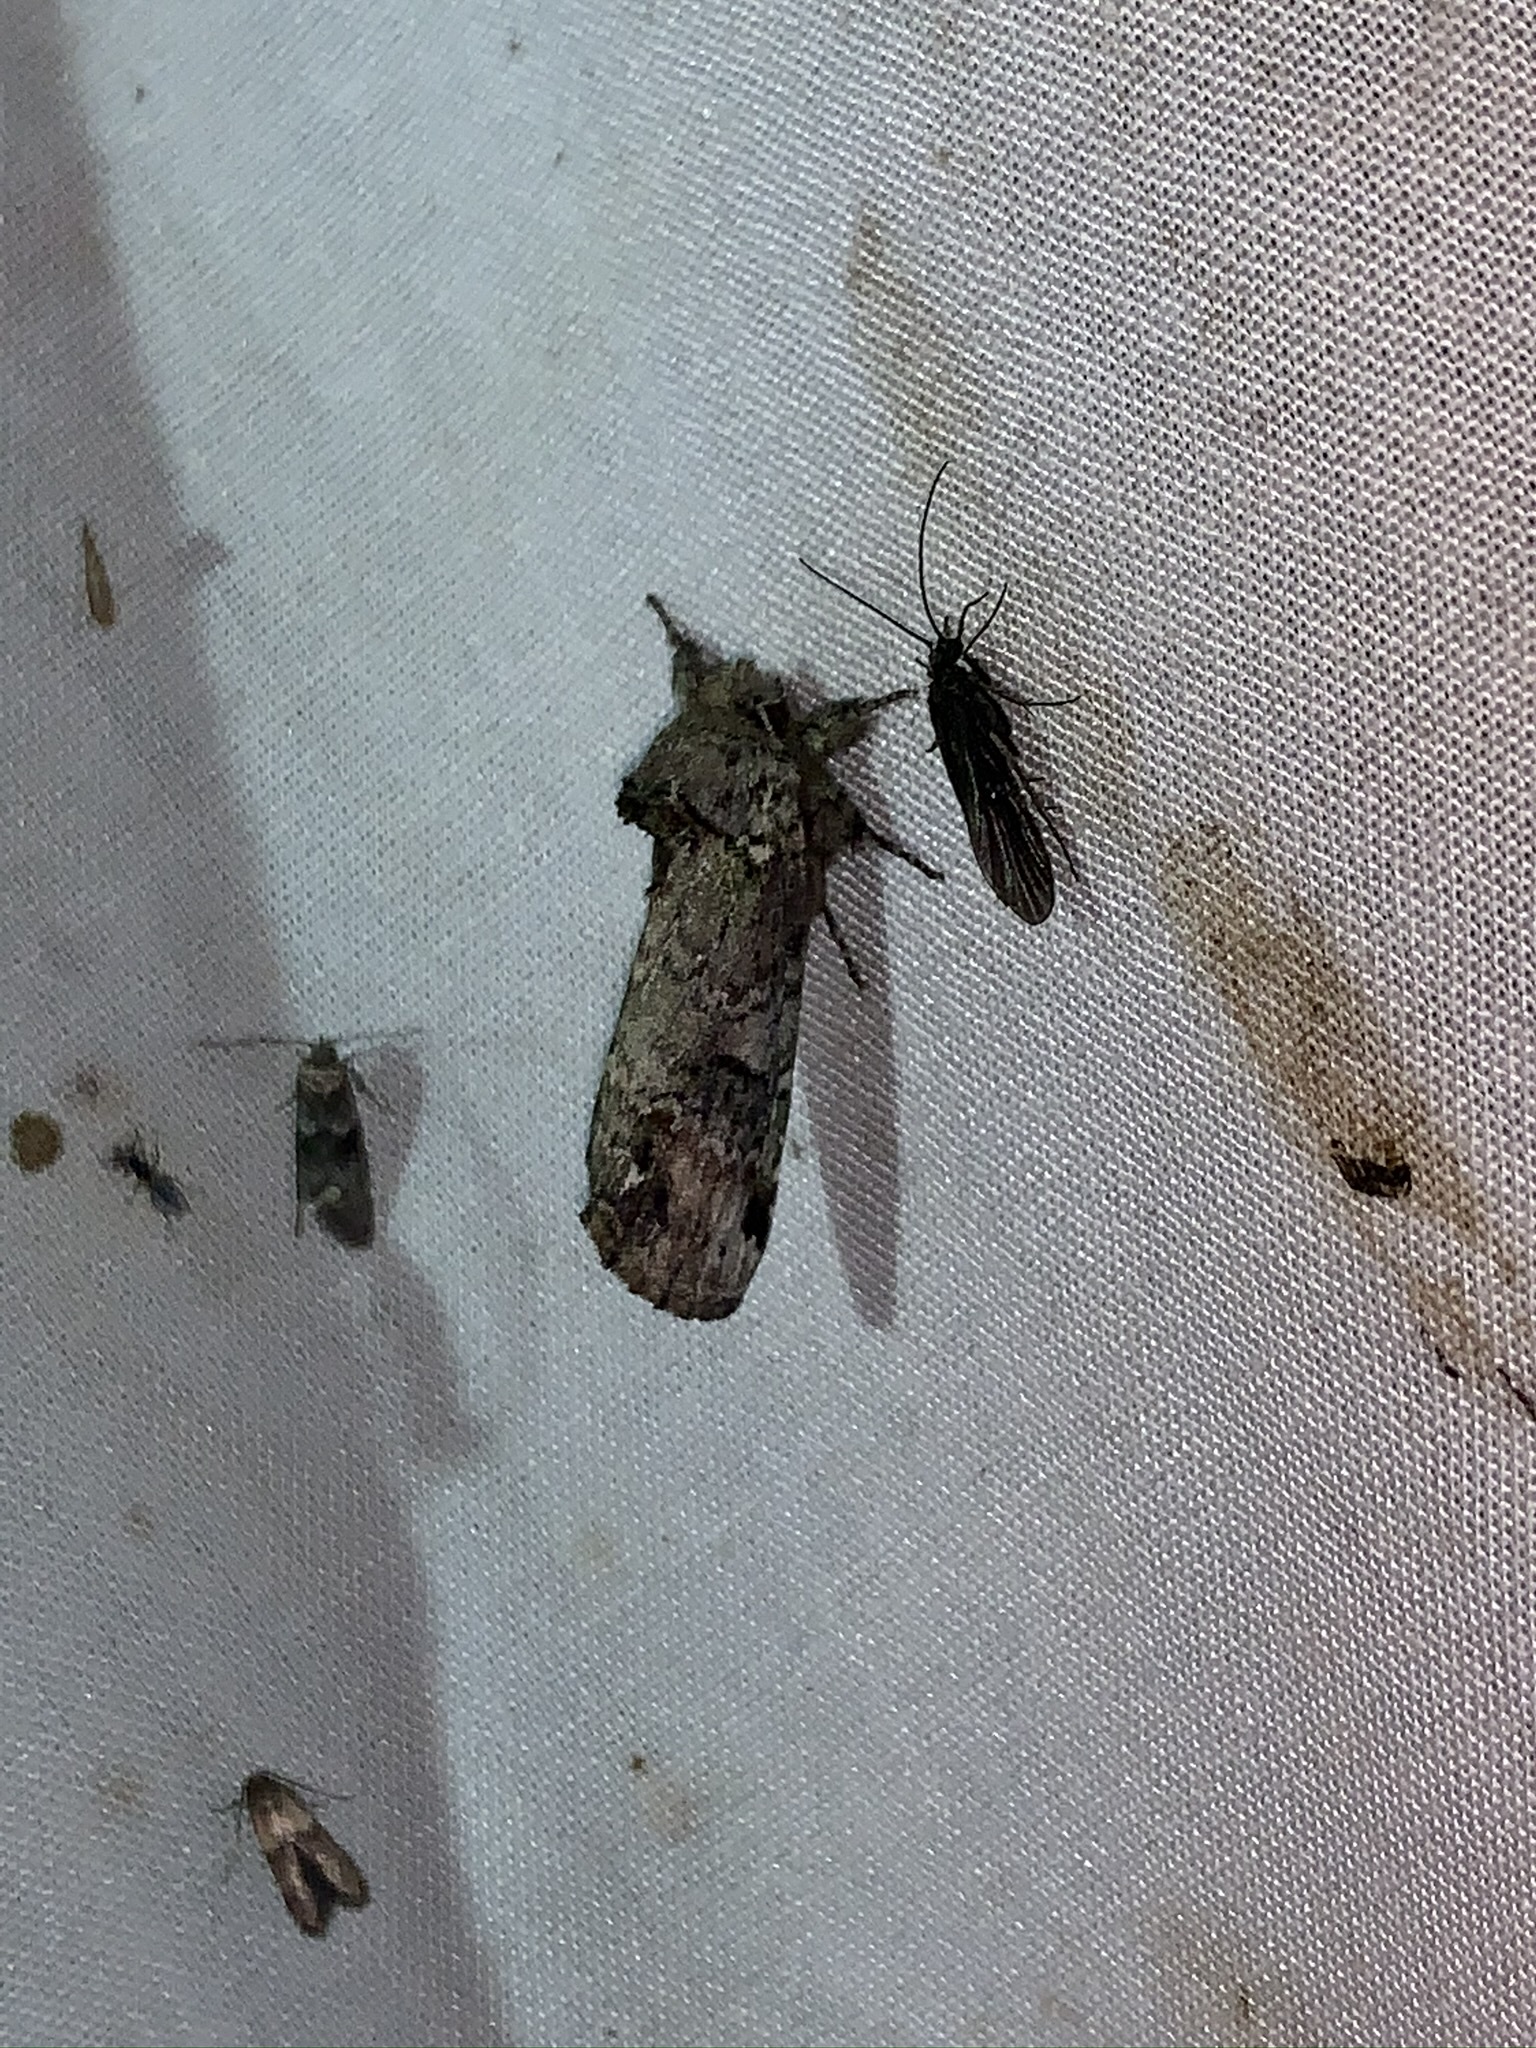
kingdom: Animalia
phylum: Arthropoda
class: Insecta
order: Lepidoptera
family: Notodontidae
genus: Schizura
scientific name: Schizura
